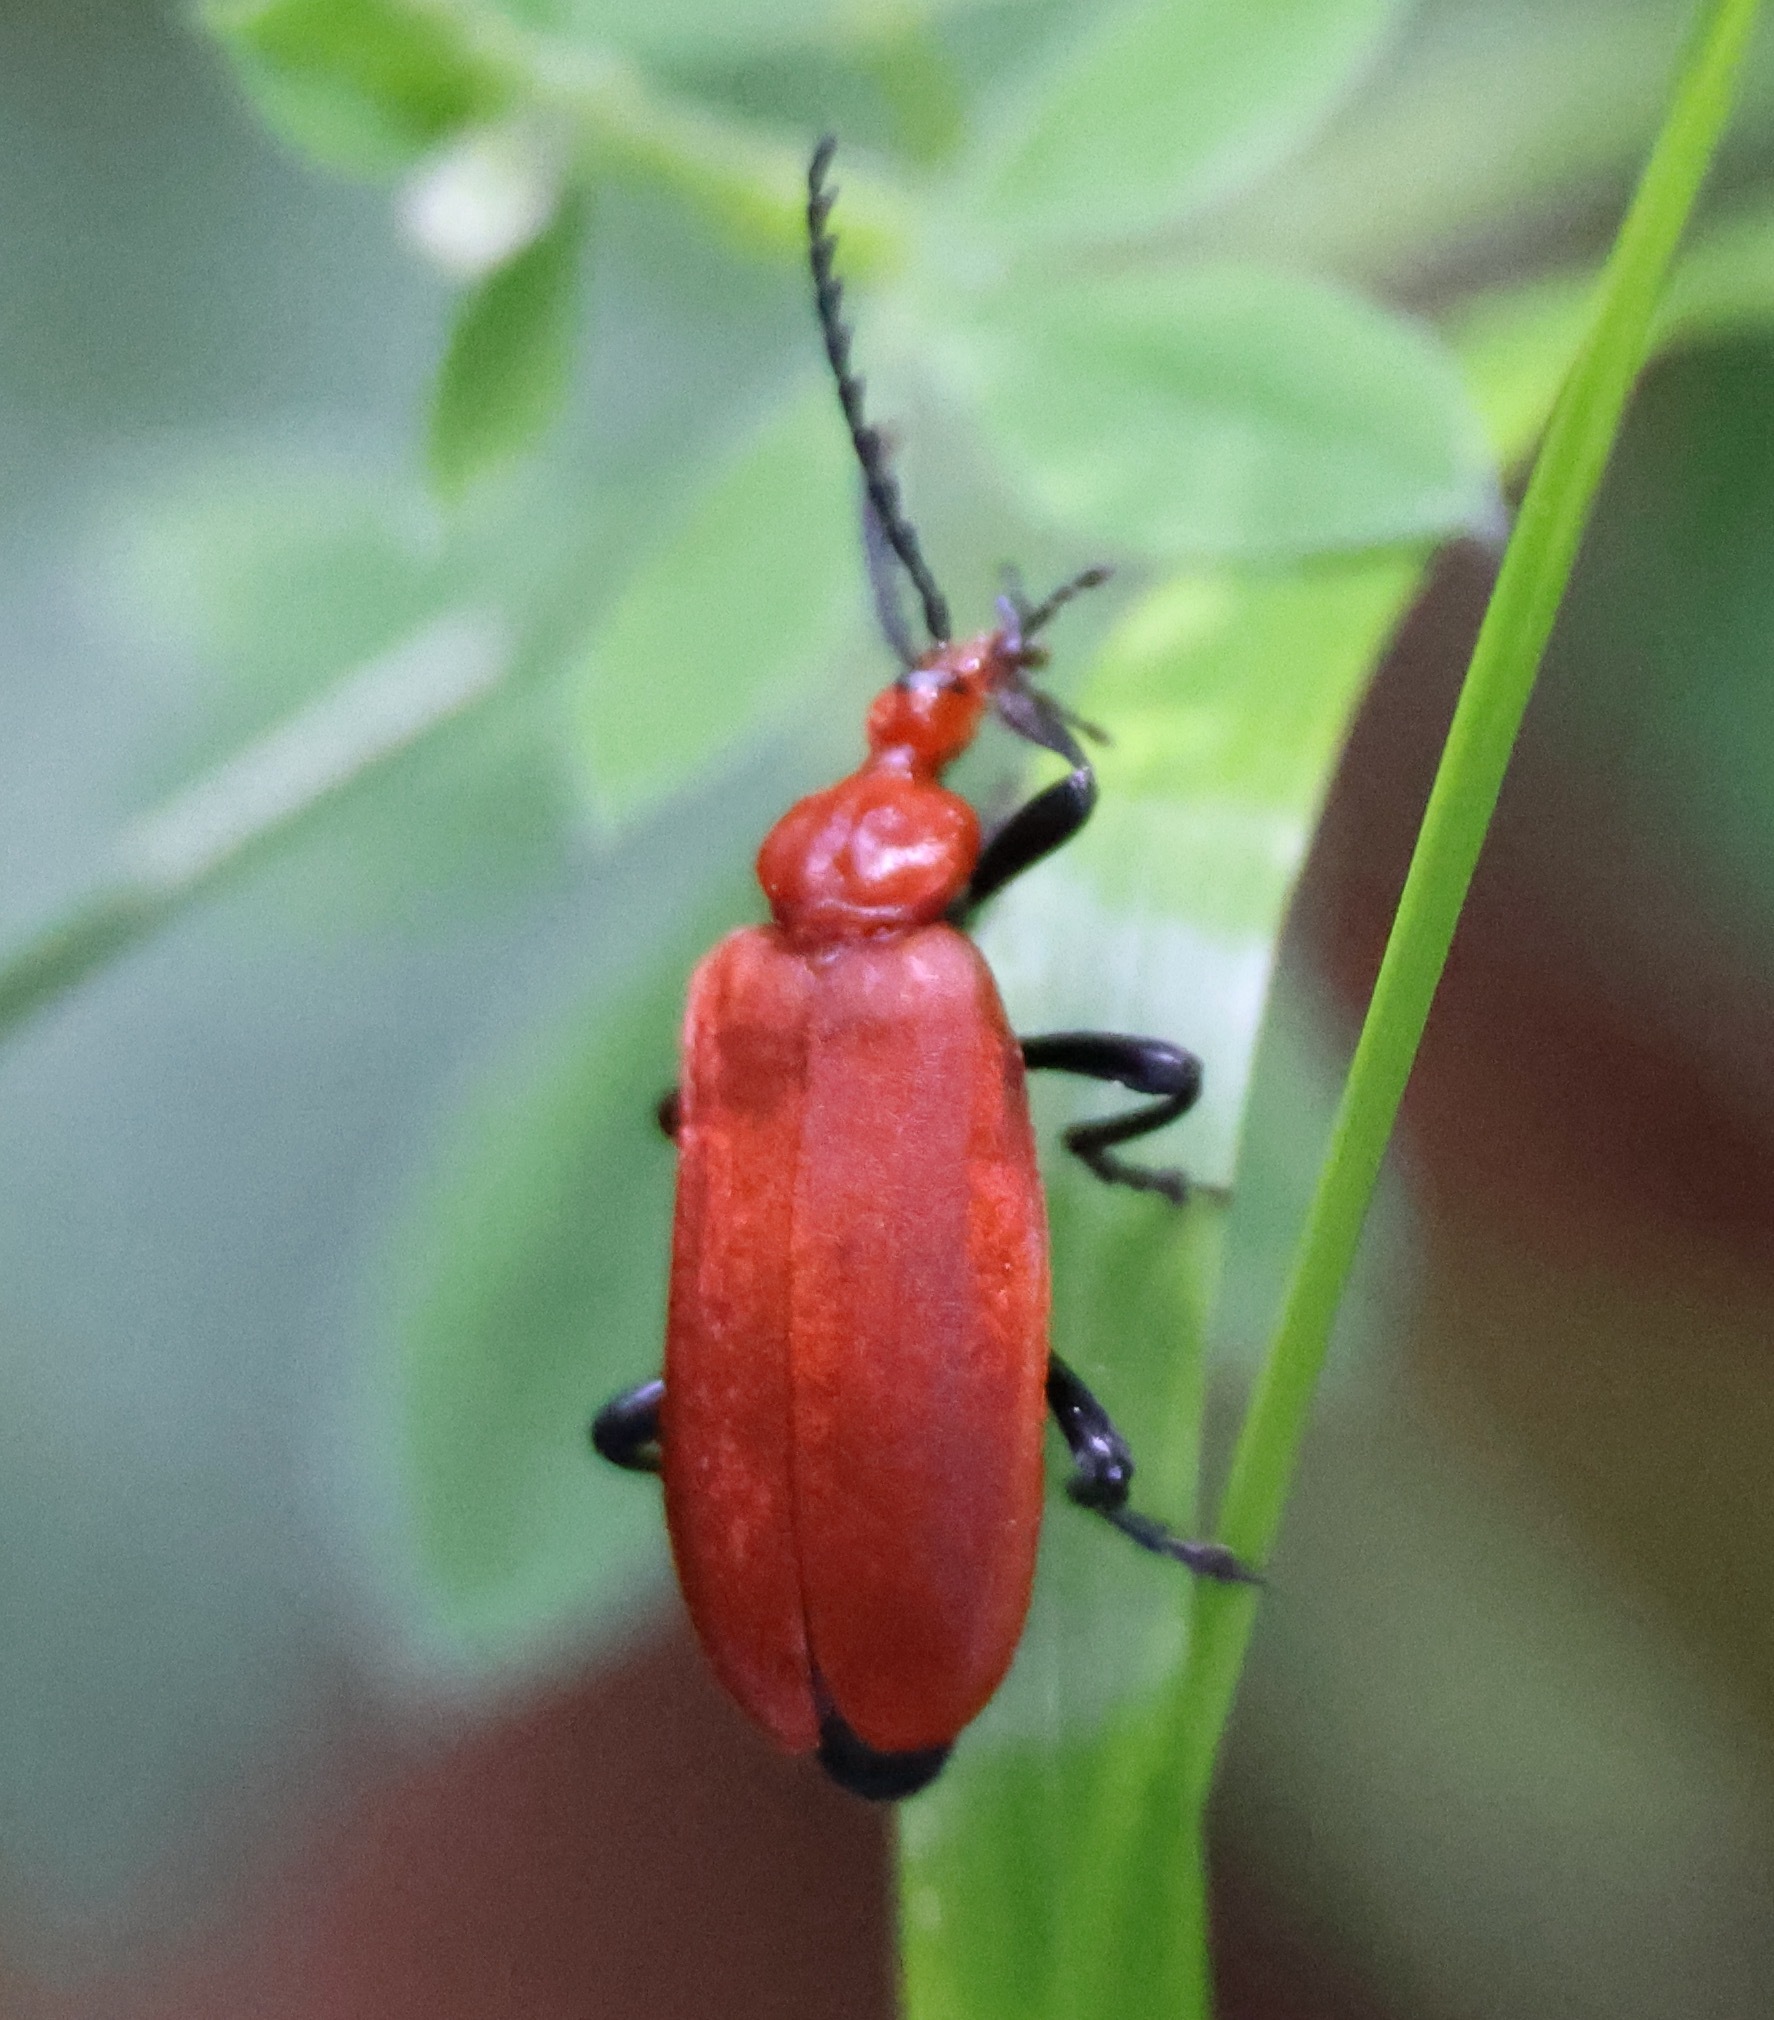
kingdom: Animalia
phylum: Arthropoda
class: Insecta
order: Coleoptera
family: Pyrochroidae
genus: Pyrochroa
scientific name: Pyrochroa serraticornis
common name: Red-headed cardinal beetle
